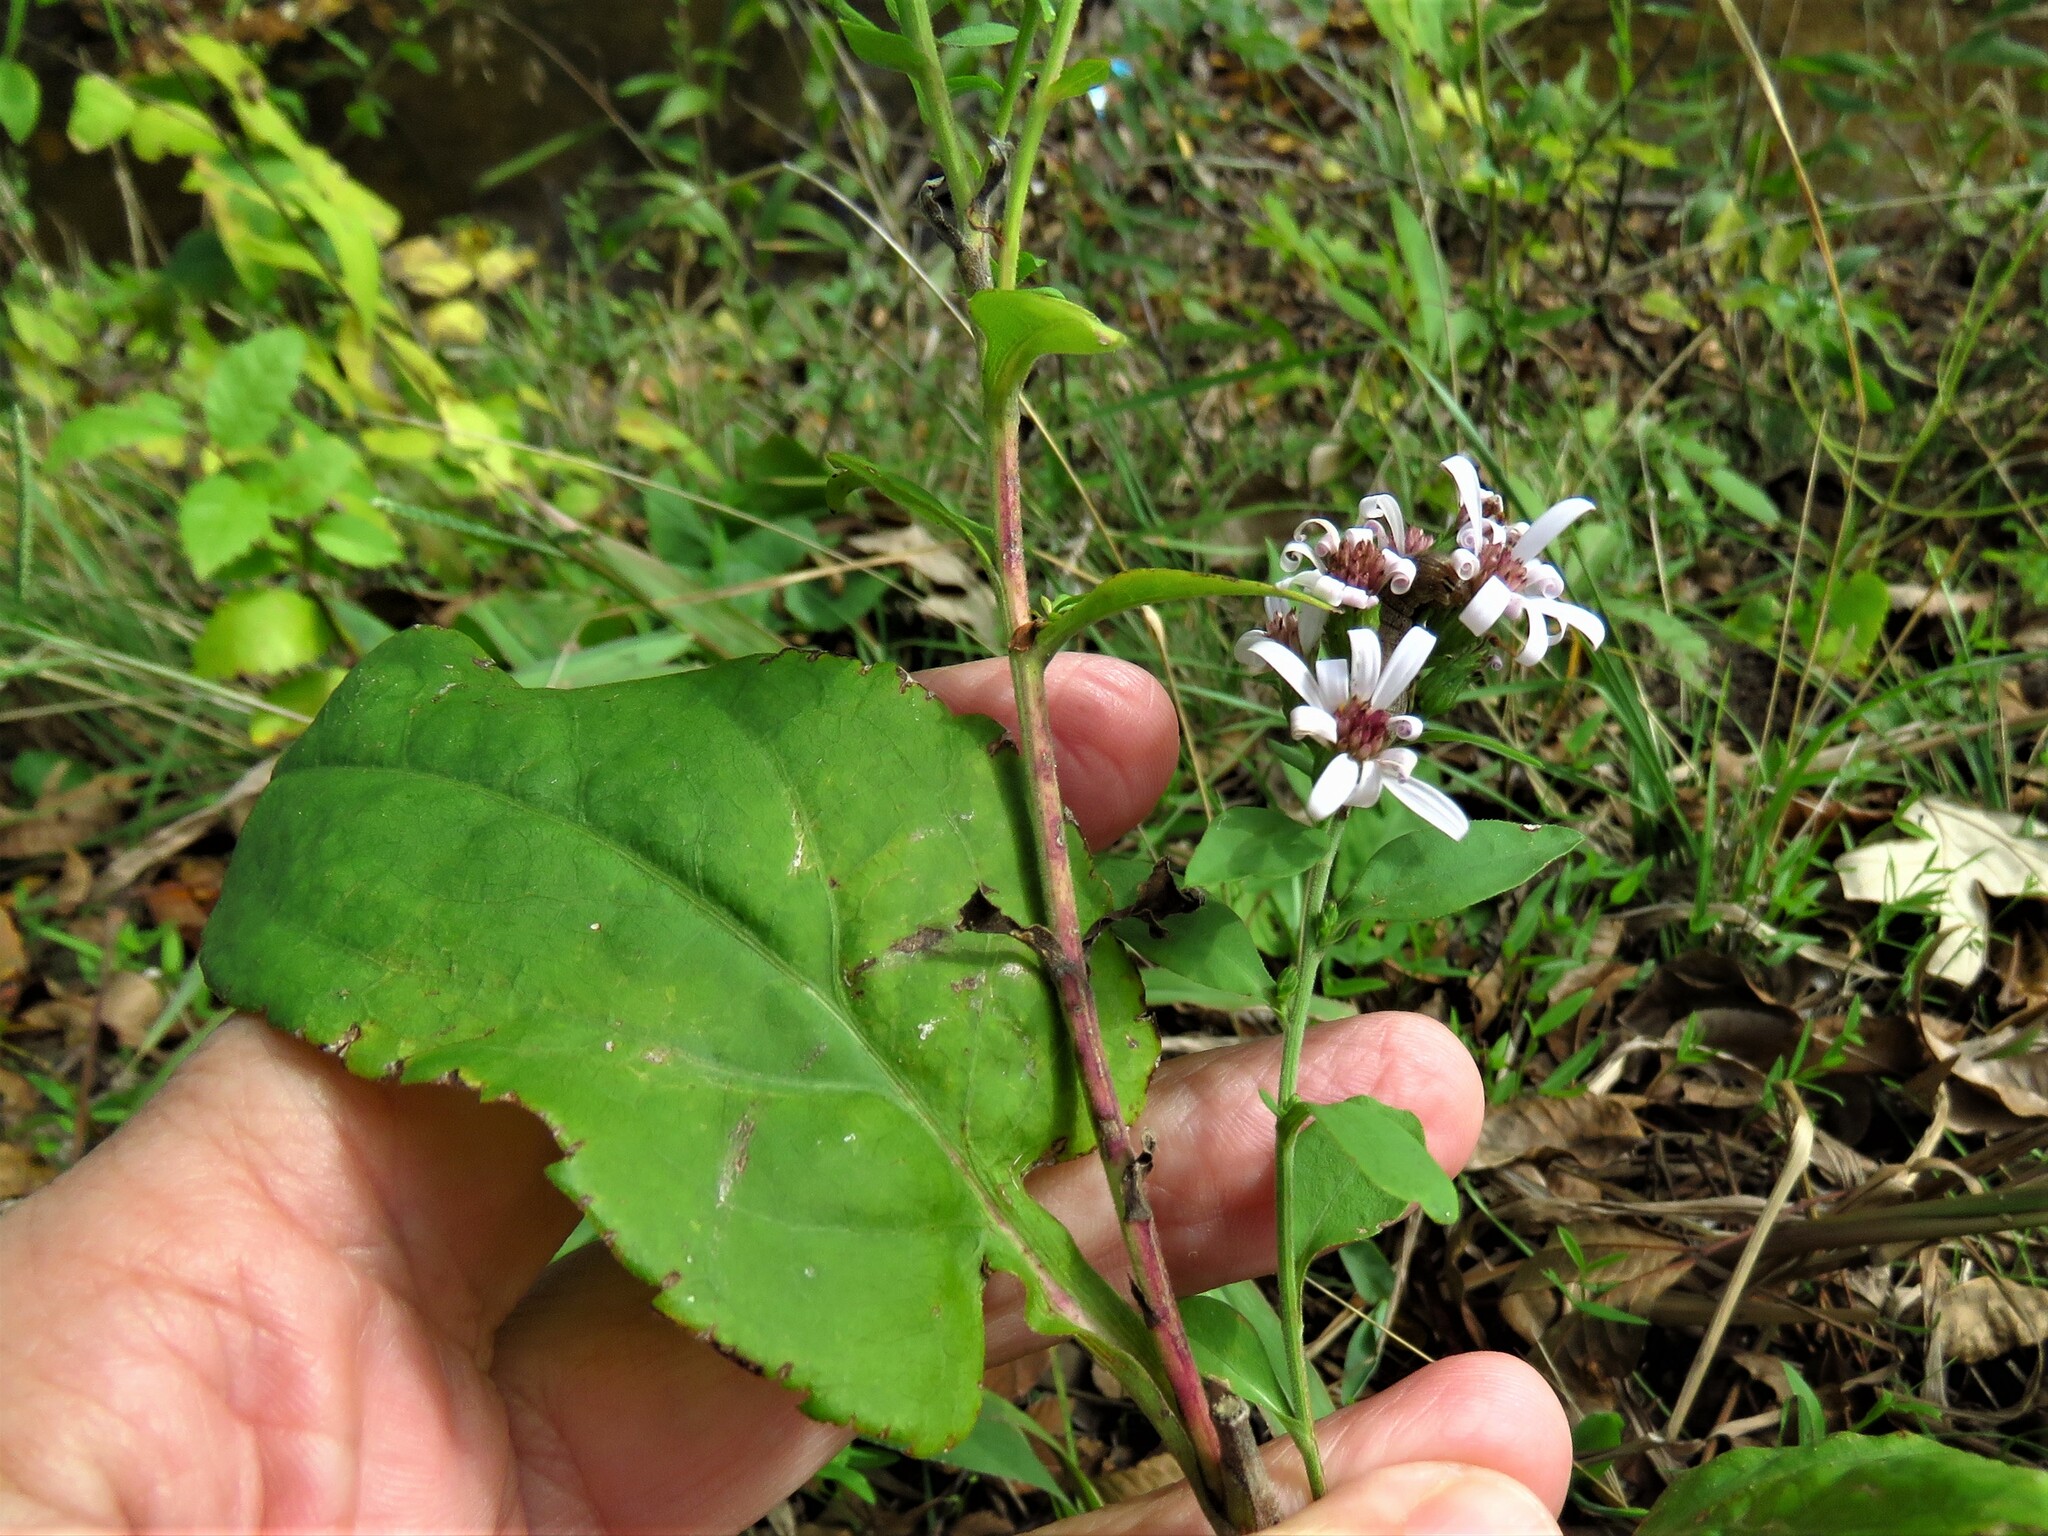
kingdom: Plantae
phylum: Tracheophyta
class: Magnoliopsida
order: Asterales
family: Asteraceae
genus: Symphyotrichum
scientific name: Symphyotrichum drummondii
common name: Drummond's aster
